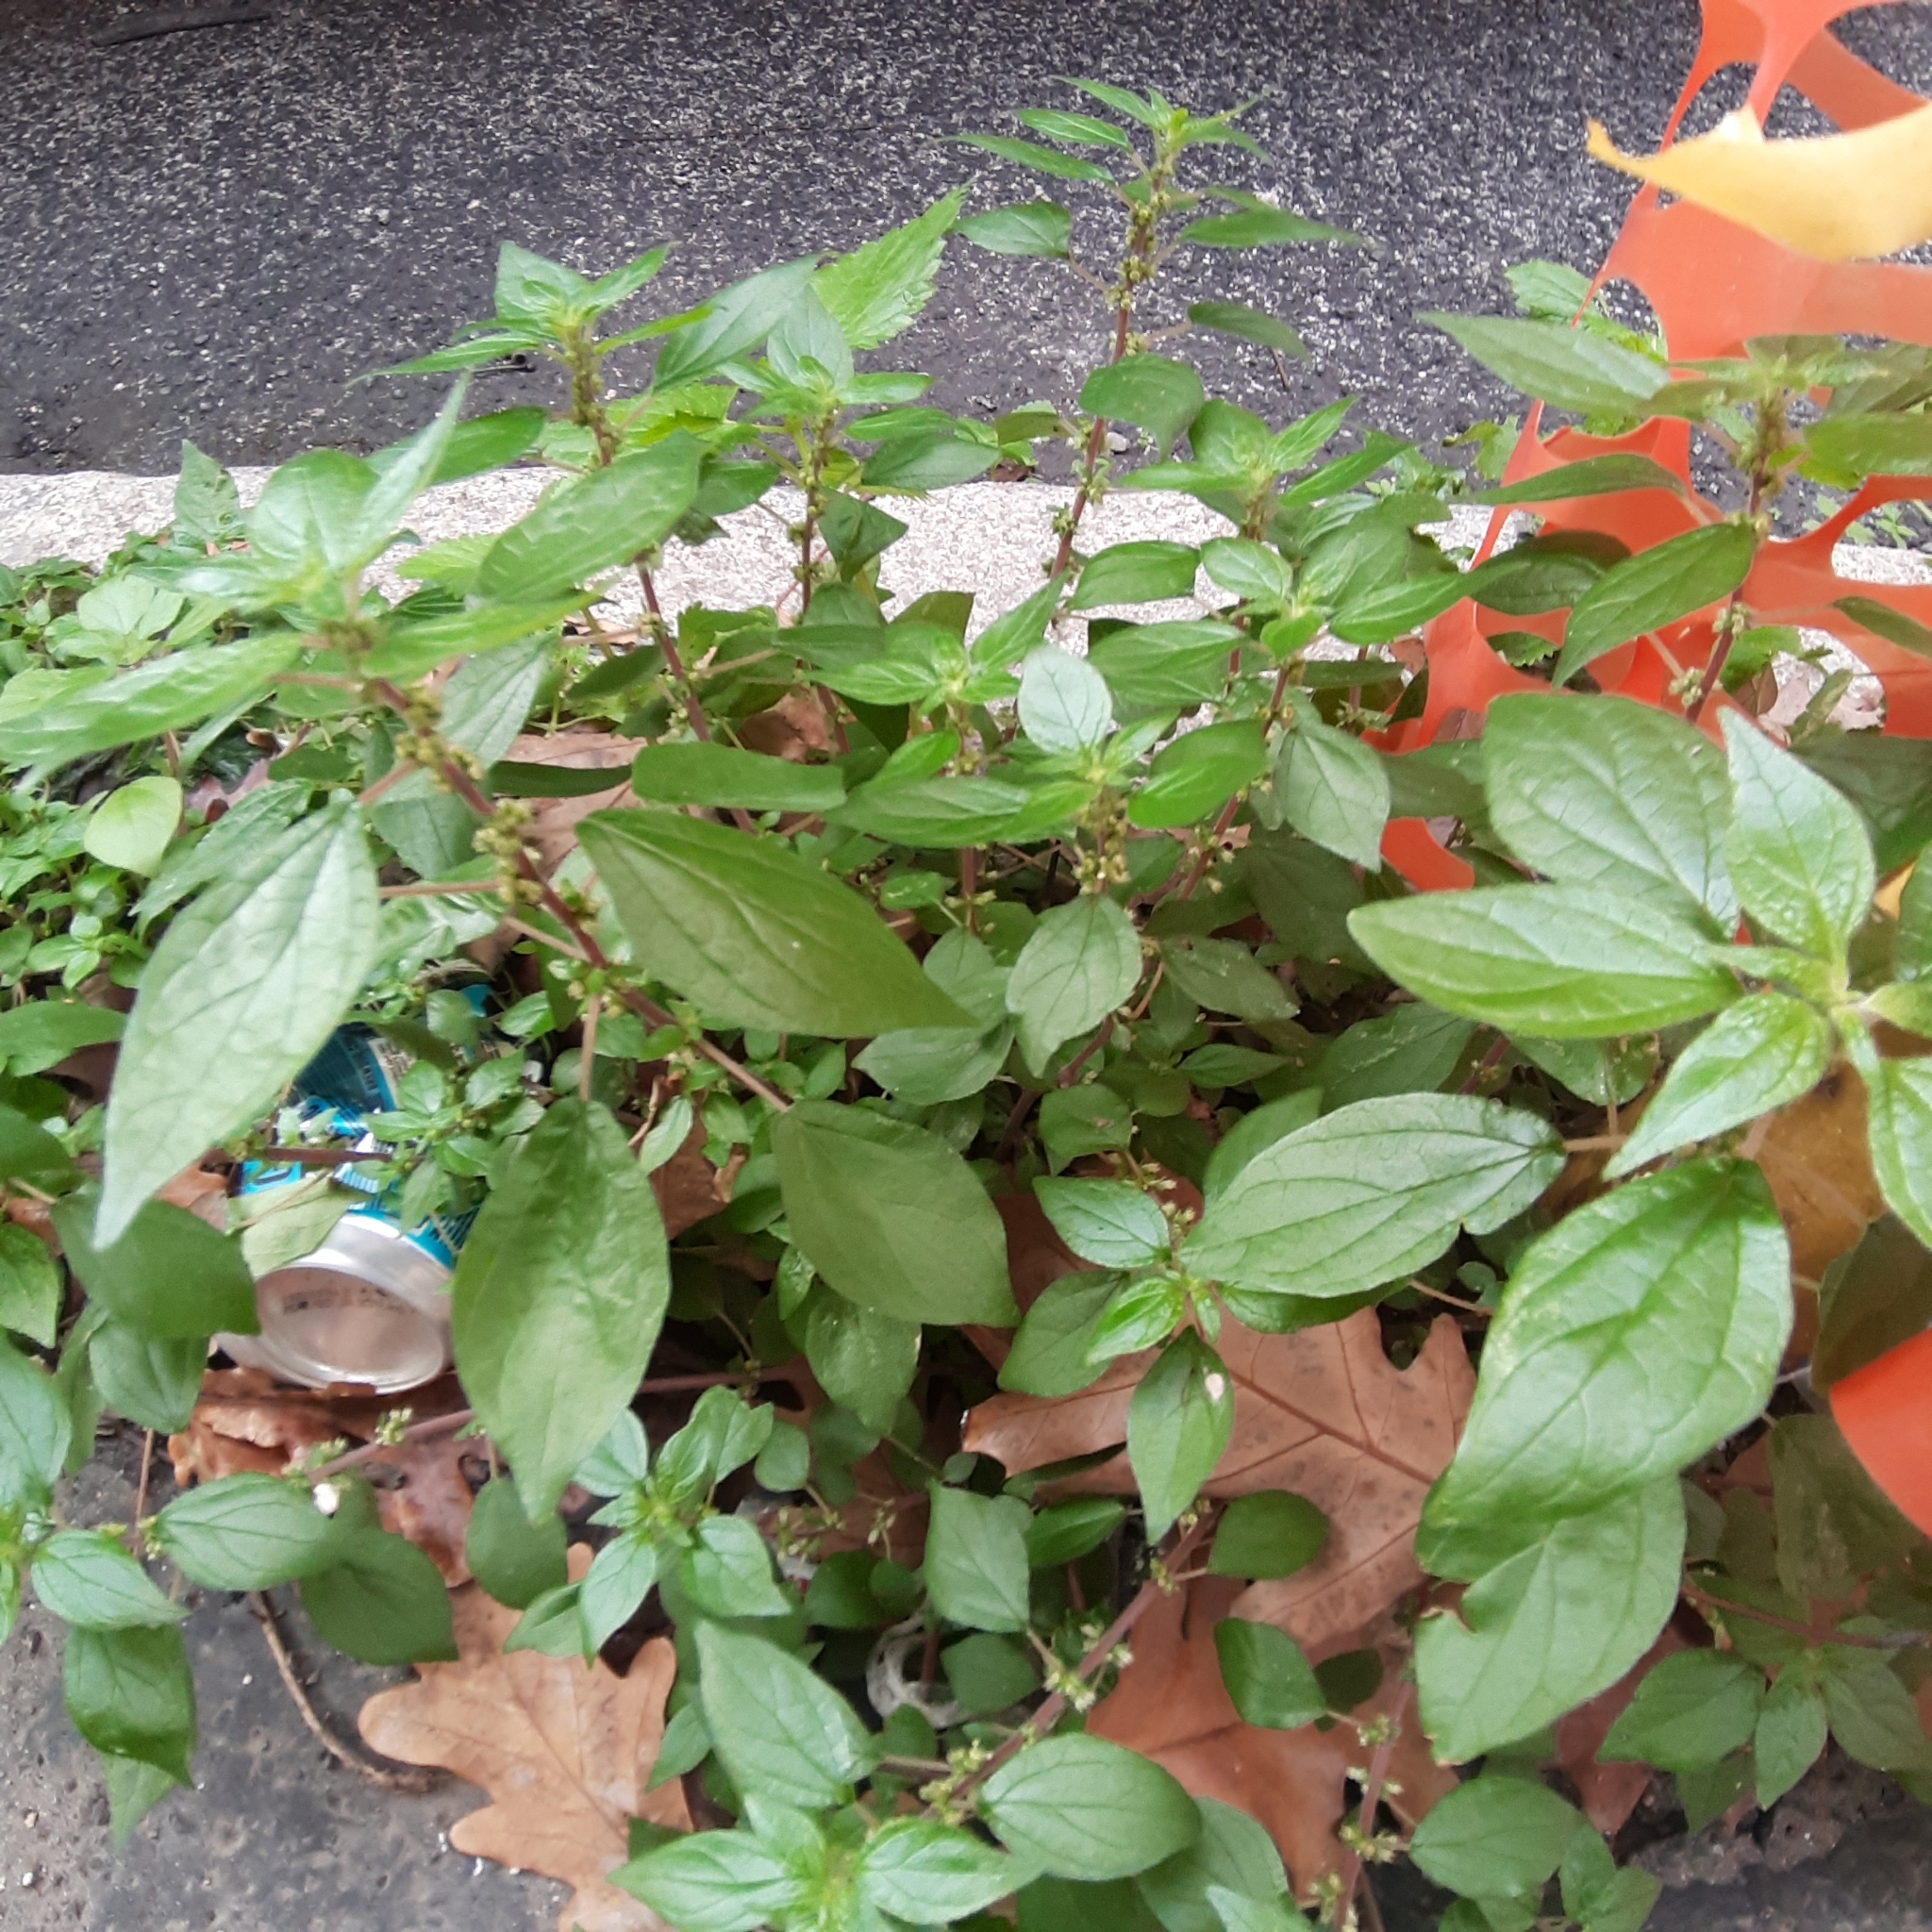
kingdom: Plantae
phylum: Tracheophyta
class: Magnoliopsida
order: Rosales
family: Urticaceae
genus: Parietaria
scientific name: Parietaria judaica
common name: Pellitory-of-the-wall
